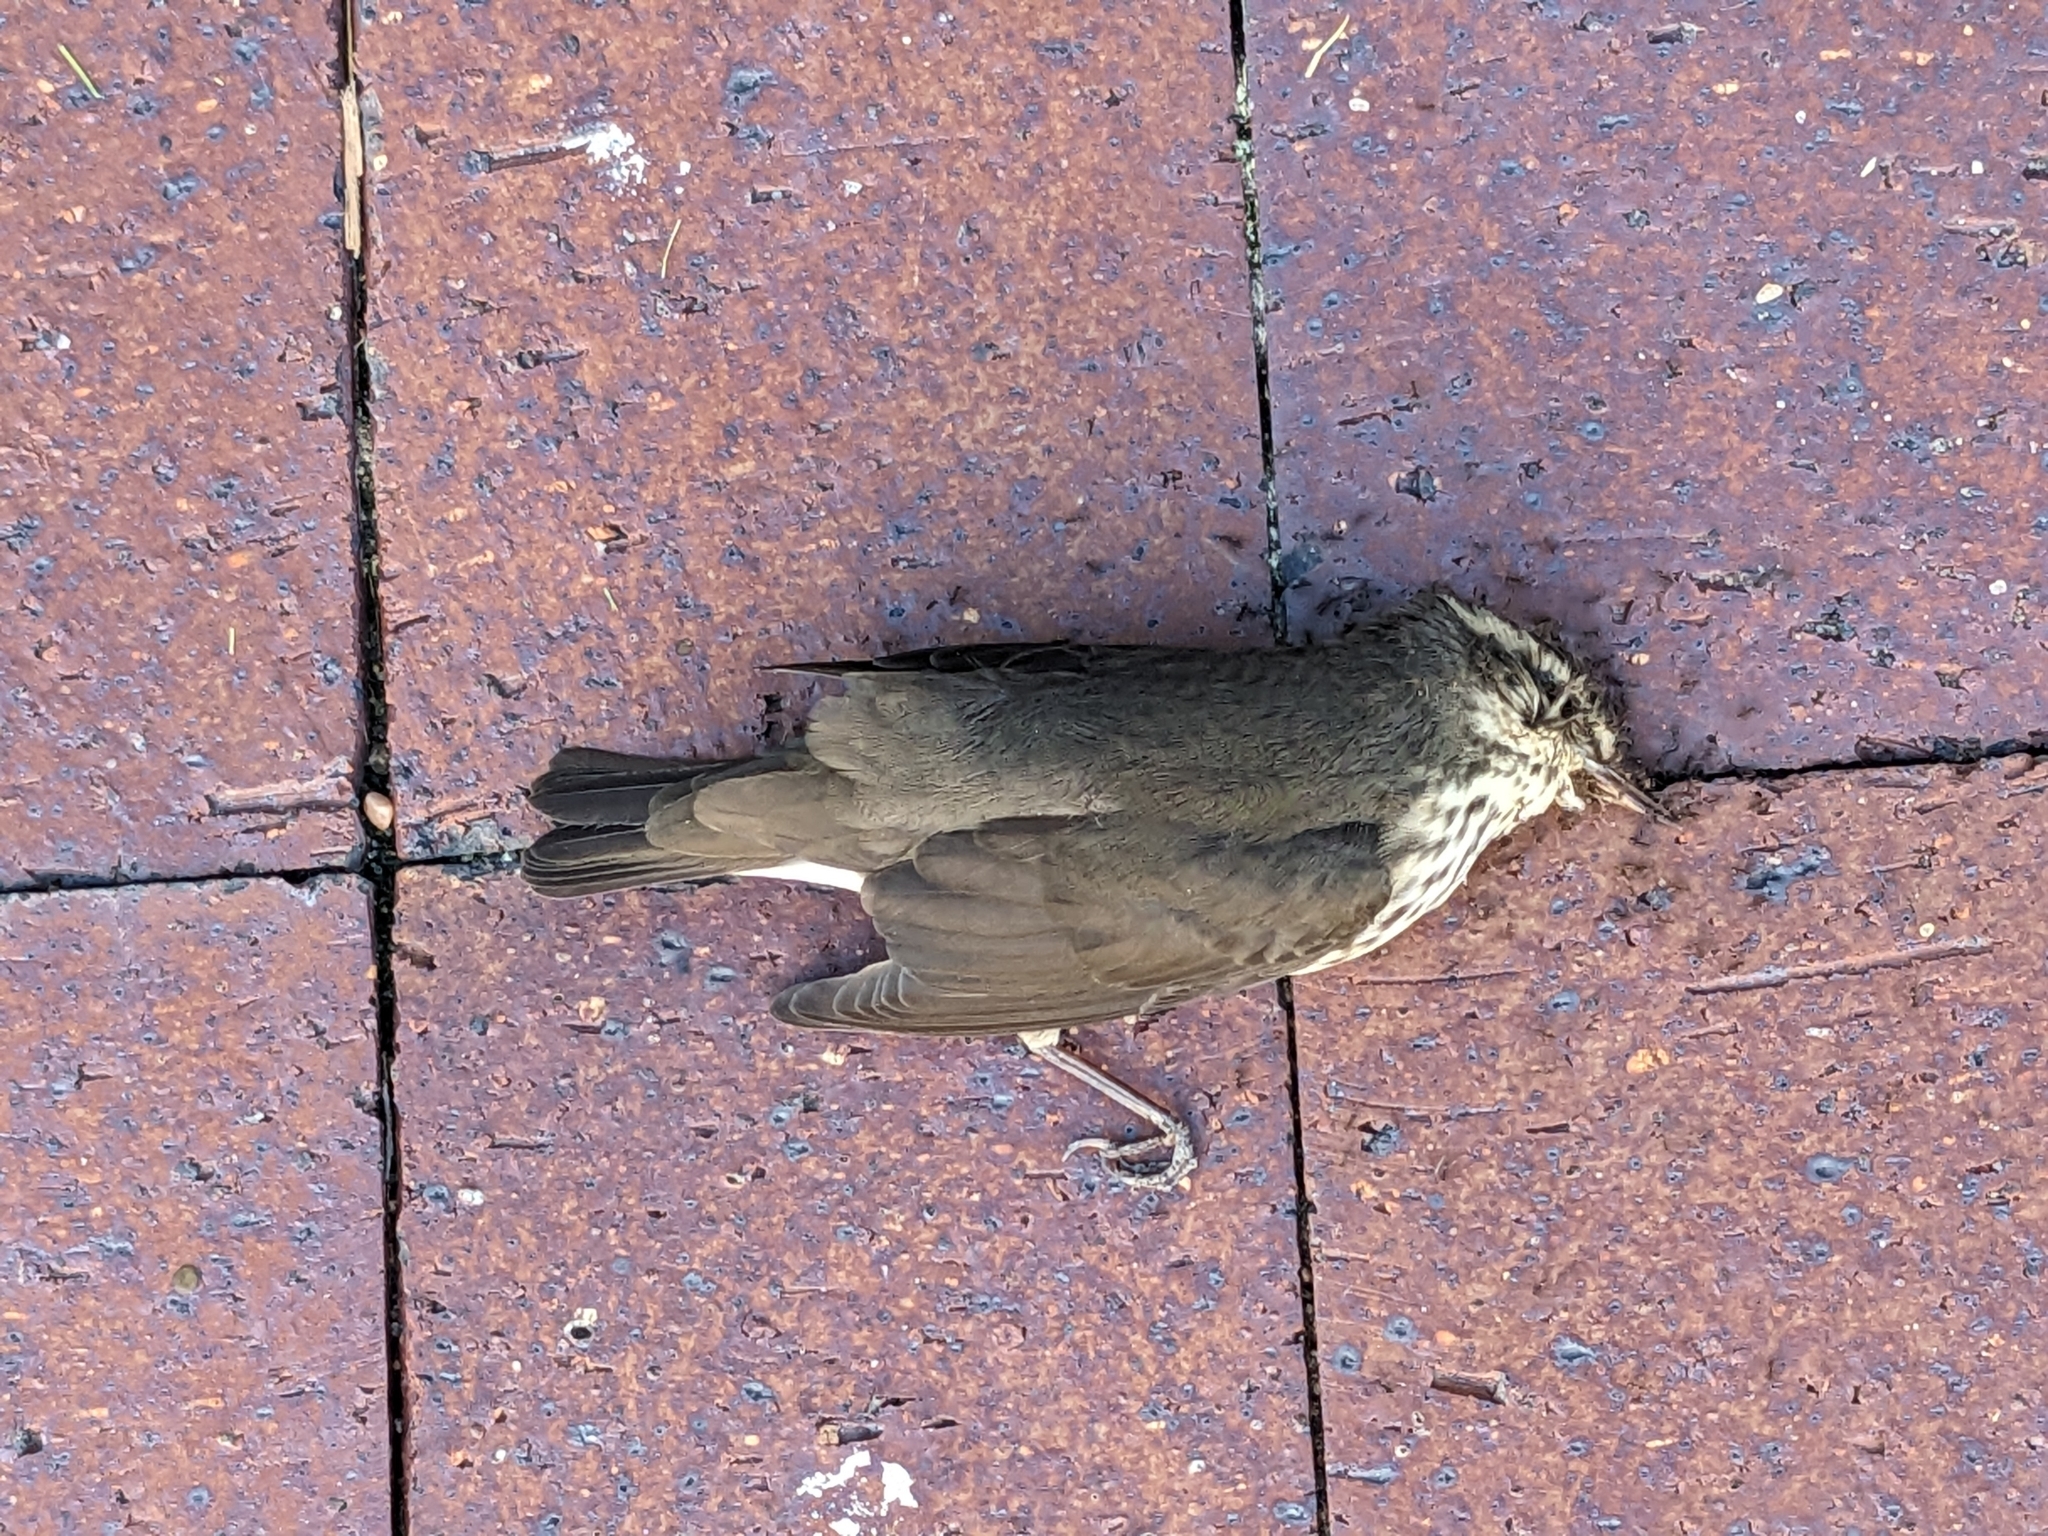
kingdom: Animalia
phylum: Chordata
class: Aves
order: Passeriformes
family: Parulidae
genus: Parkesia
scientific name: Parkesia noveboracensis
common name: Northern waterthrush
